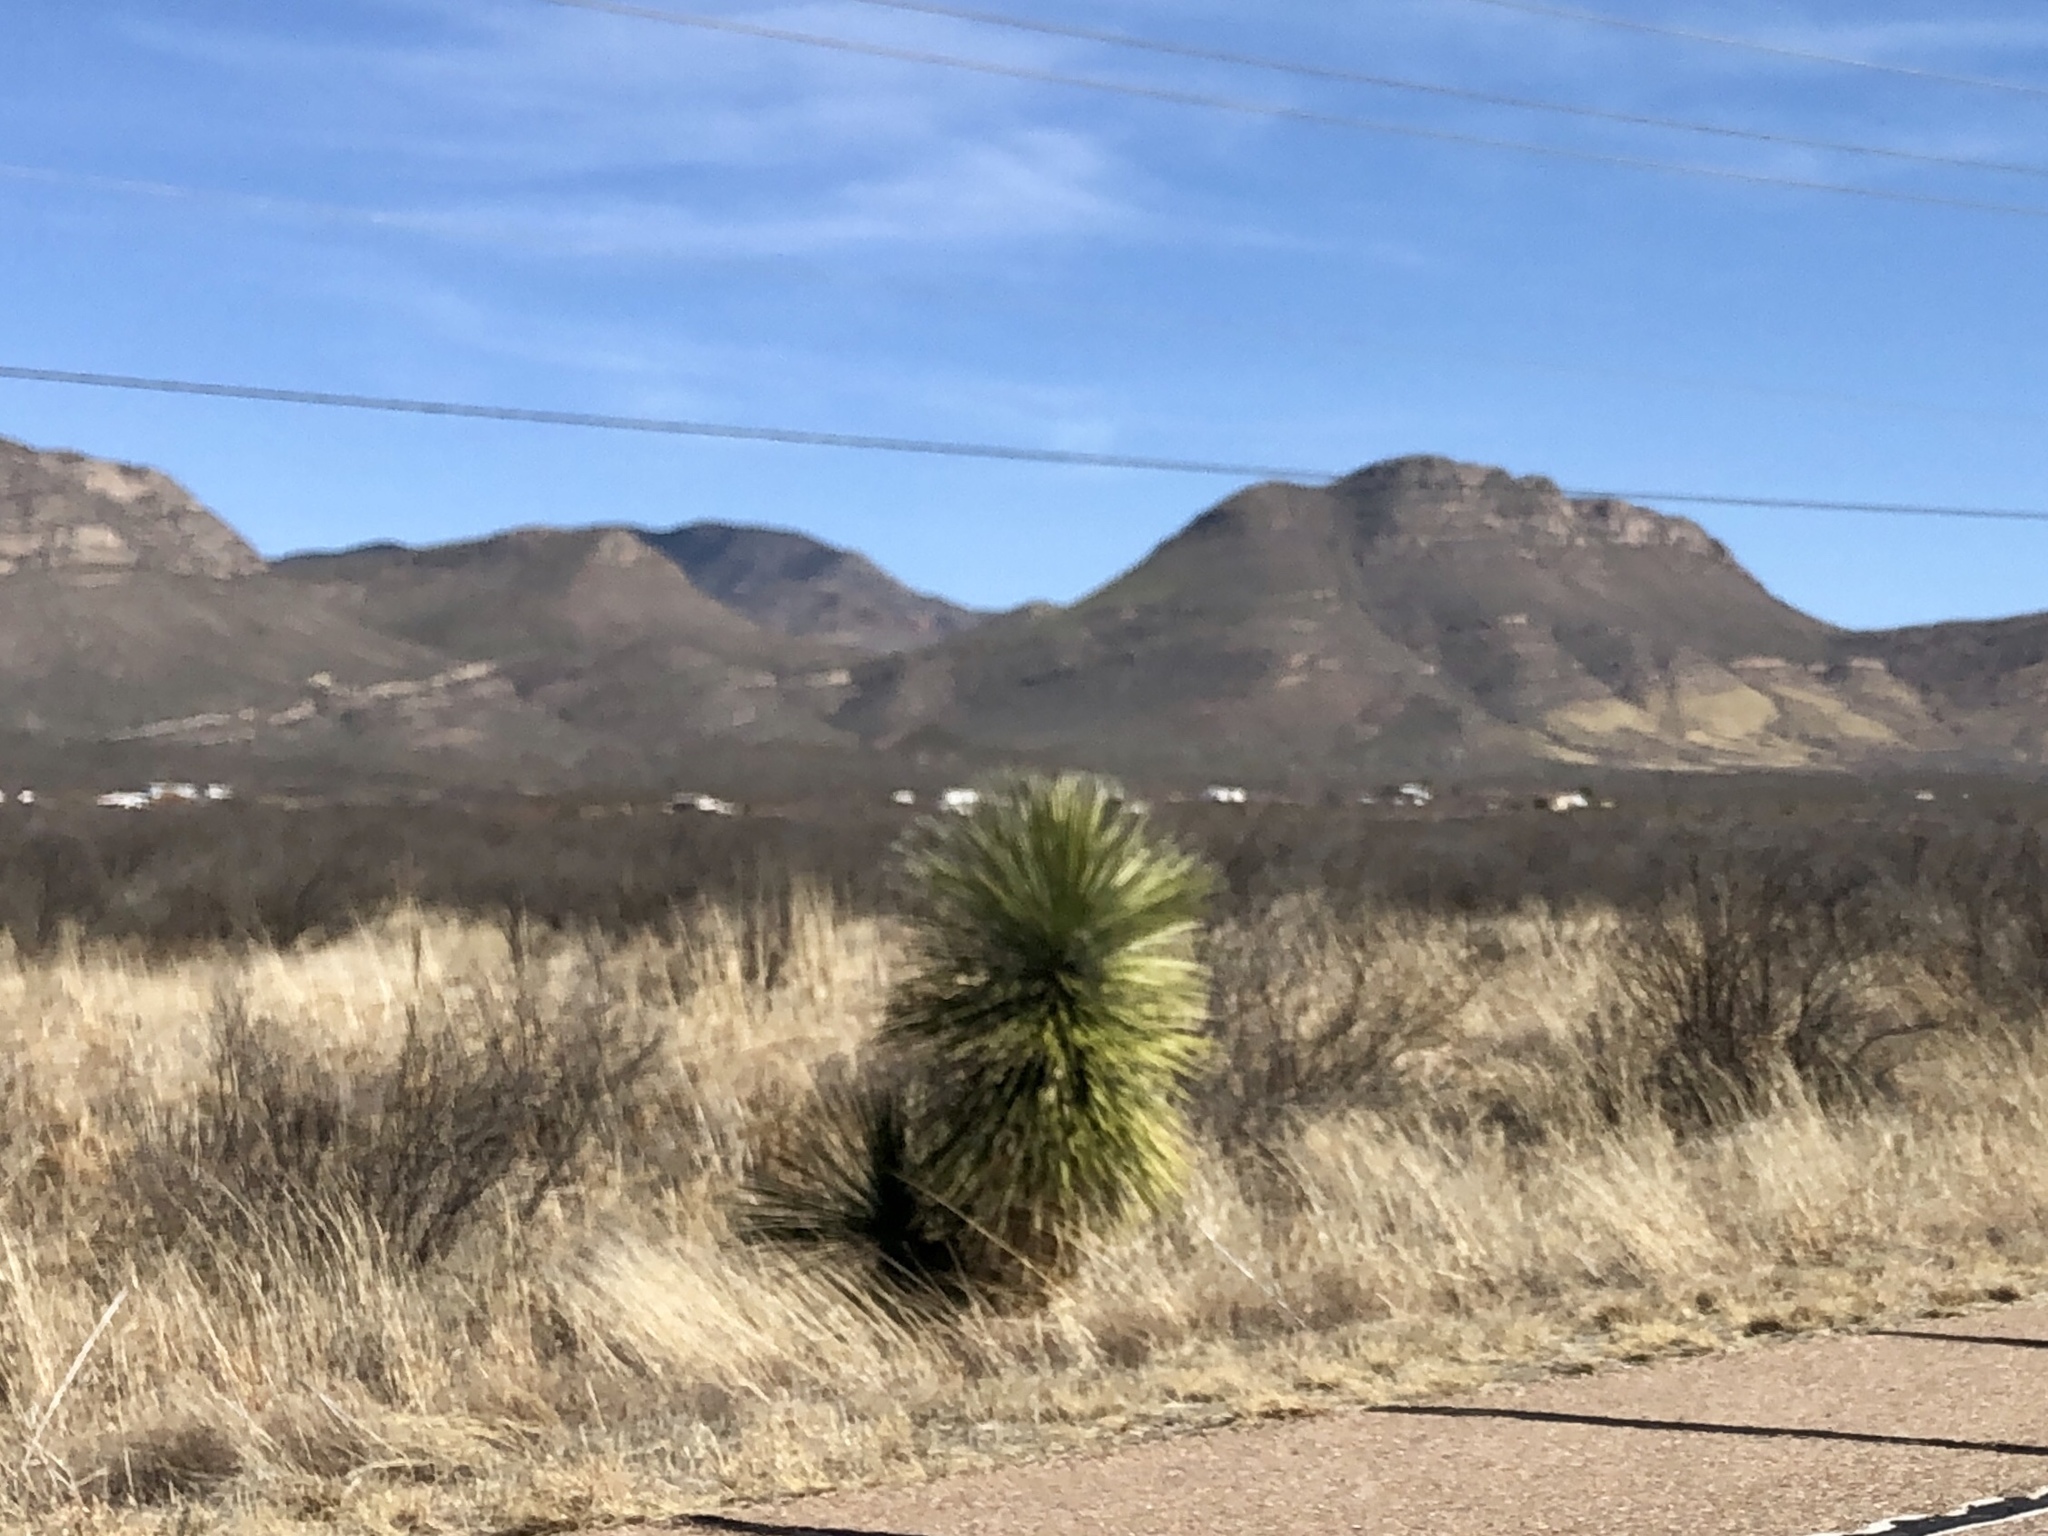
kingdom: Plantae
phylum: Tracheophyta
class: Liliopsida
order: Asparagales
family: Asparagaceae
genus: Yucca
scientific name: Yucca elata
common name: Palmella
